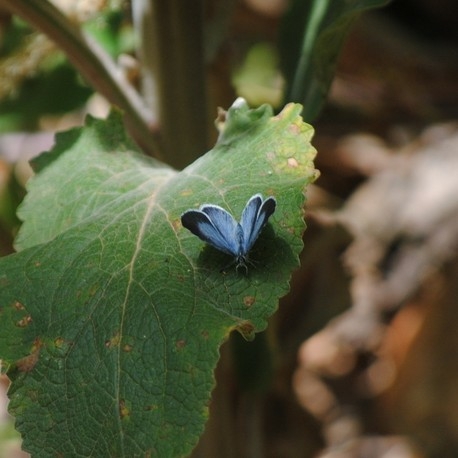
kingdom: Animalia
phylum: Arthropoda
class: Insecta
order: Lepidoptera
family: Lycaenidae
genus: Celastrina
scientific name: Celastrina argiolus
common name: Holly blue
